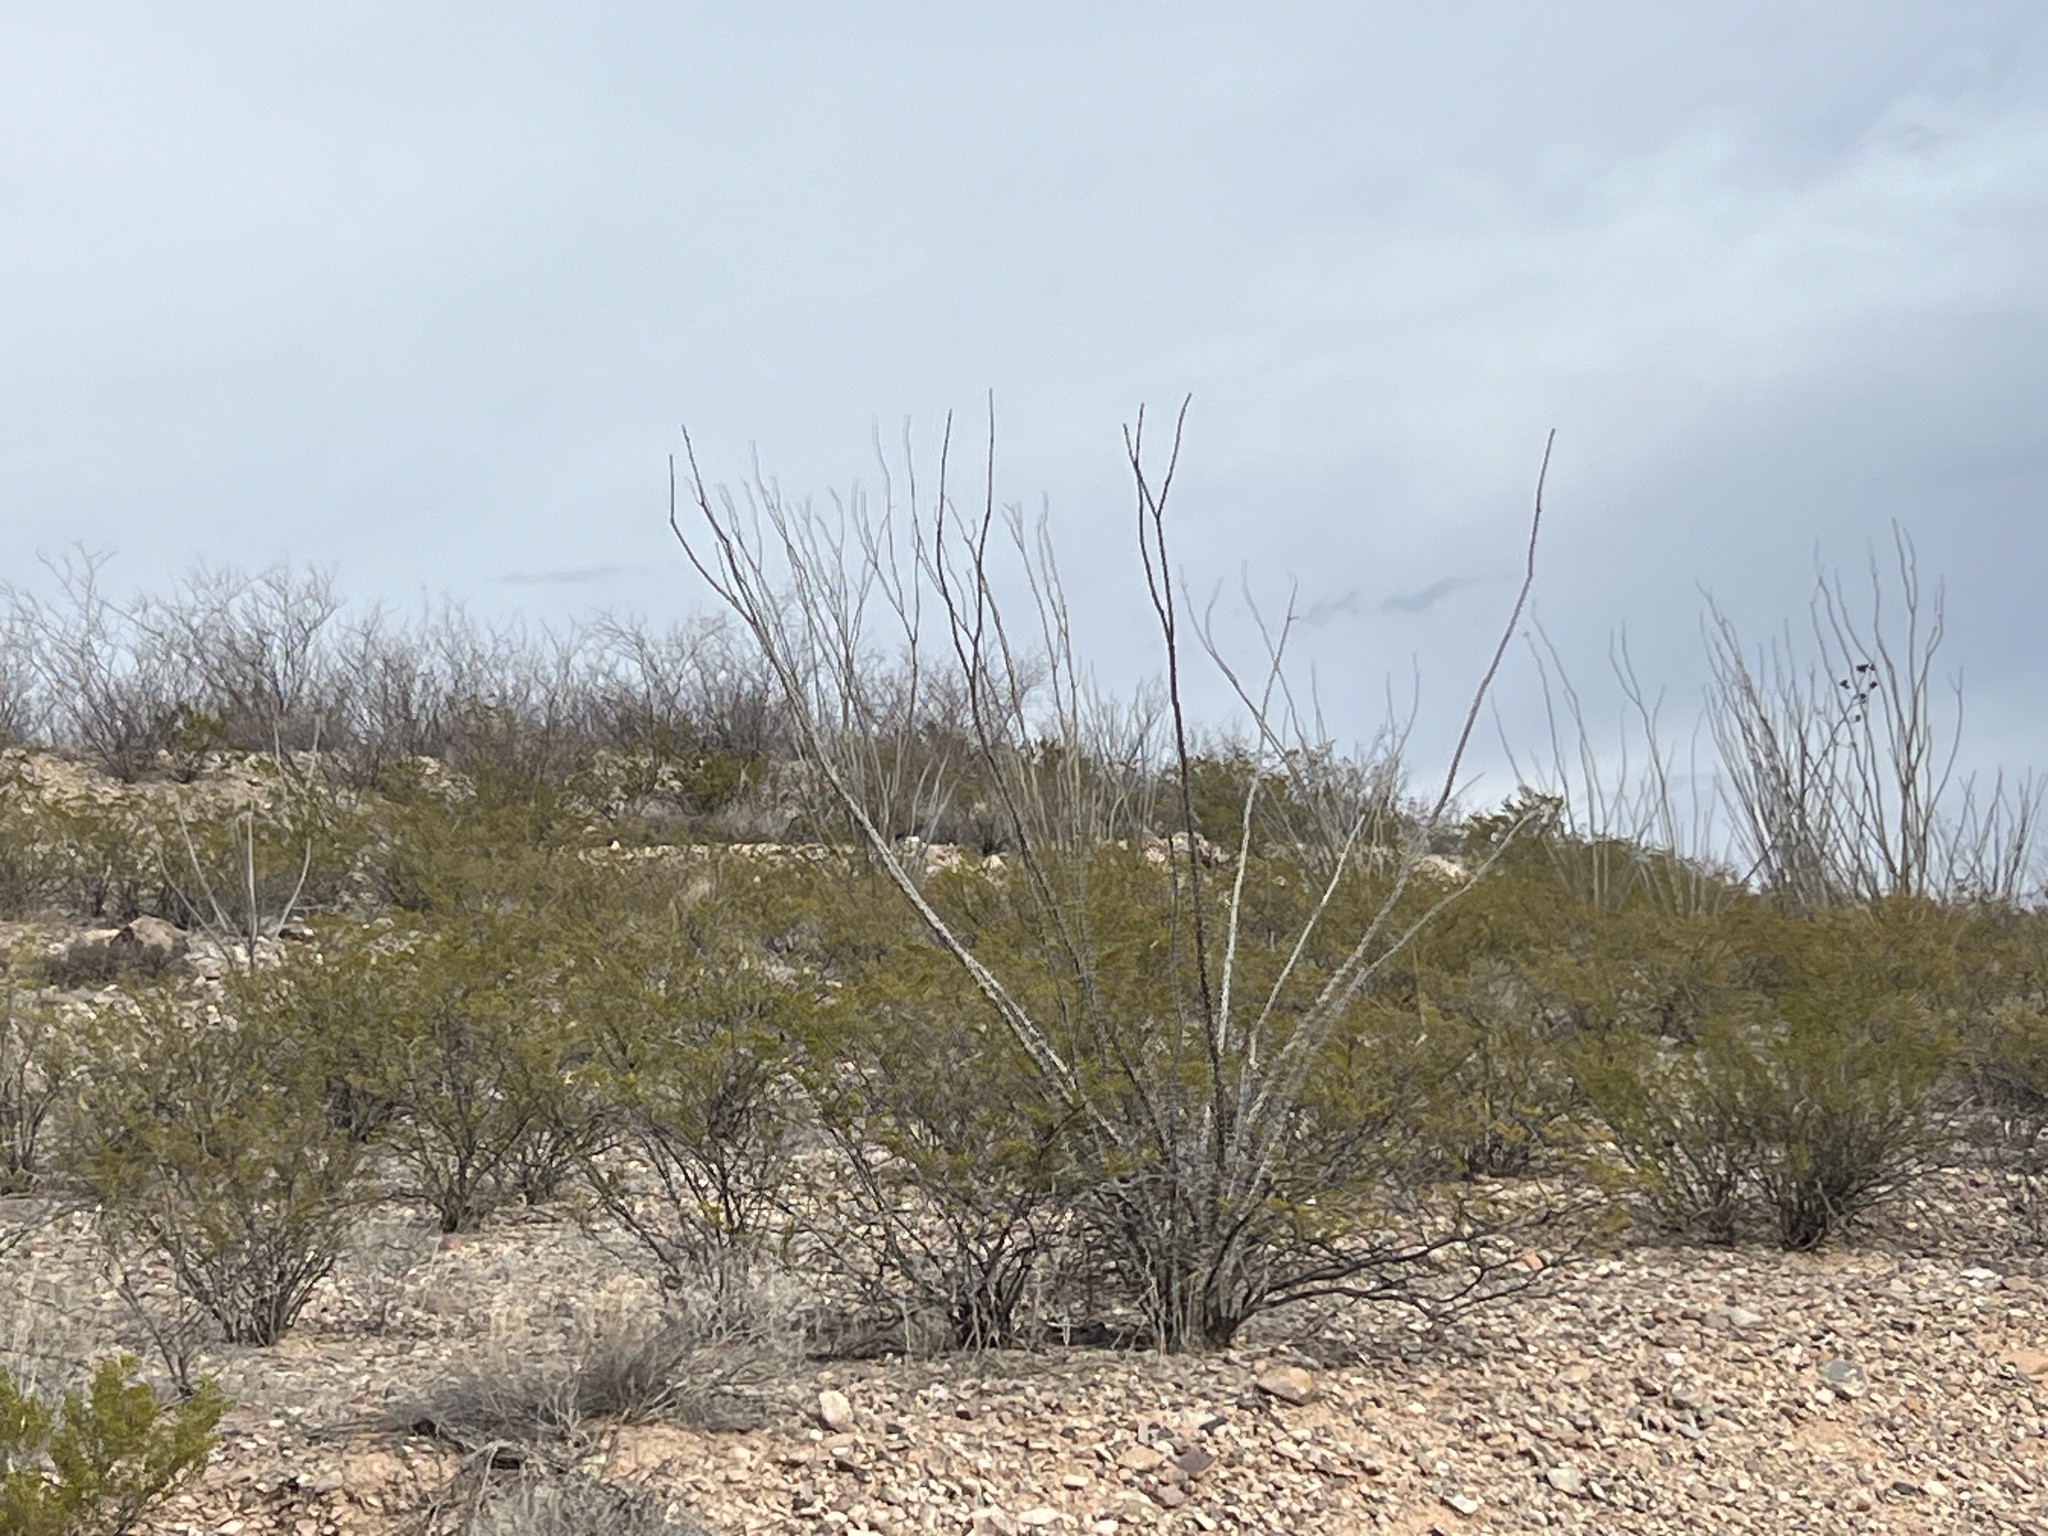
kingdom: Plantae
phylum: Tracheophyta
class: Magnoliopsida
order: Ericales
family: Fouquieriaceae
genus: Fouquieria
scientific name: Fouquieria splendens
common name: Vine-cactus
